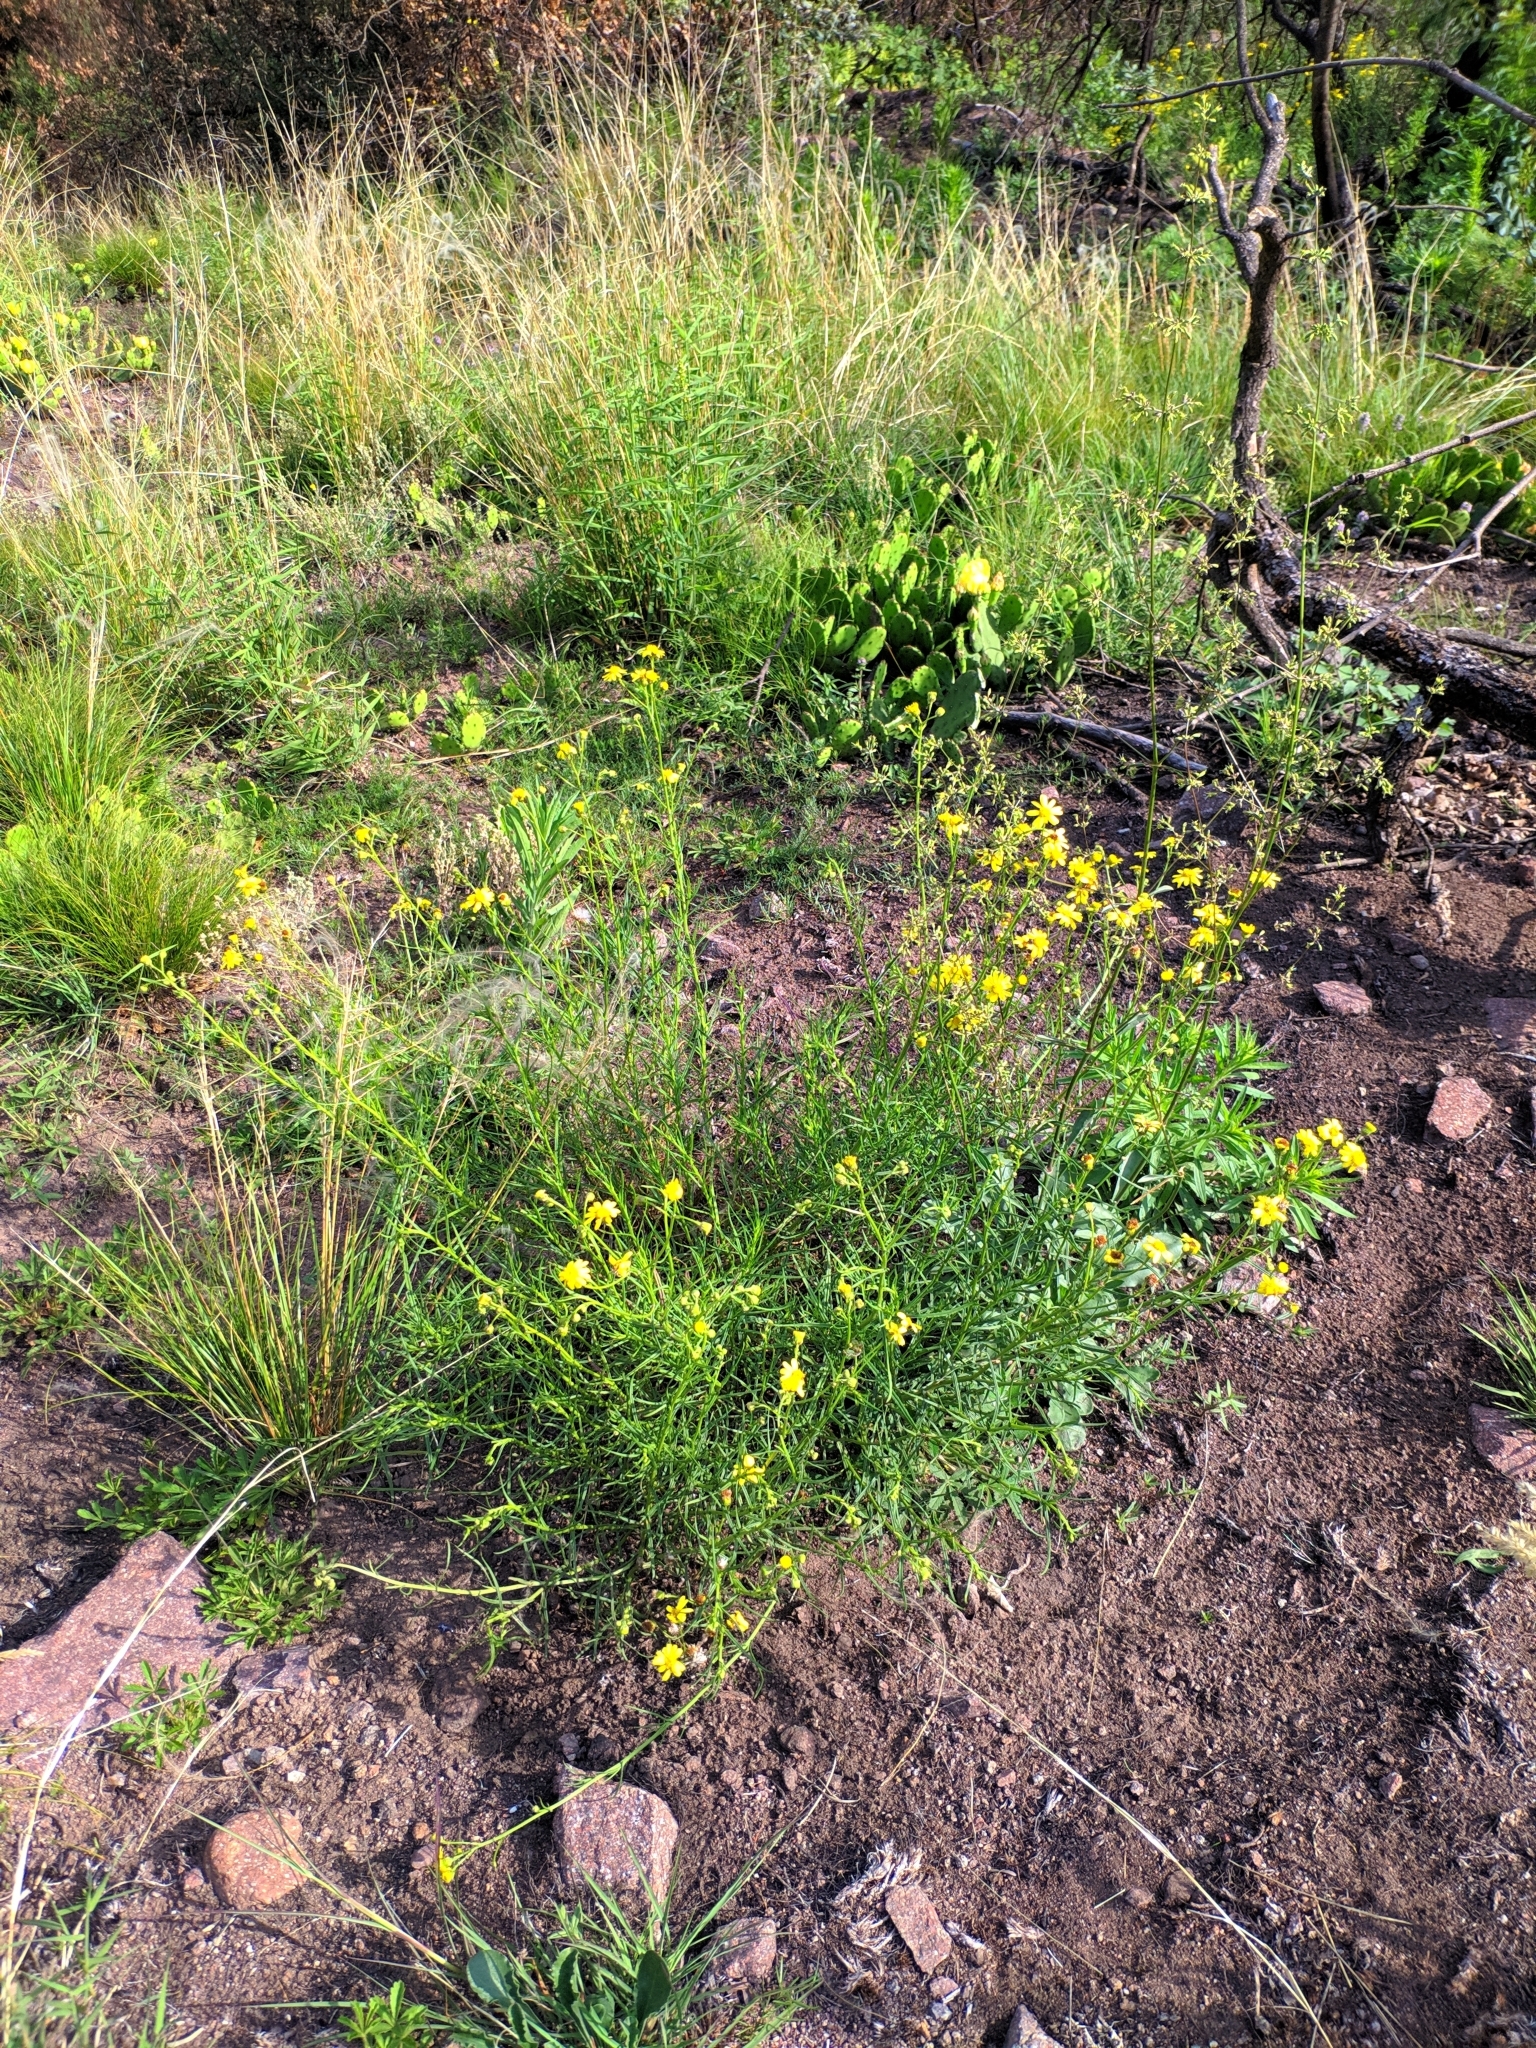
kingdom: Plantae
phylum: Tracheophyta
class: Magnoliopsida
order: Asterales
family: Asteraceae
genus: Senecio
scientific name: Senecio inaequidens
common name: Narrow-leaved ragwort
